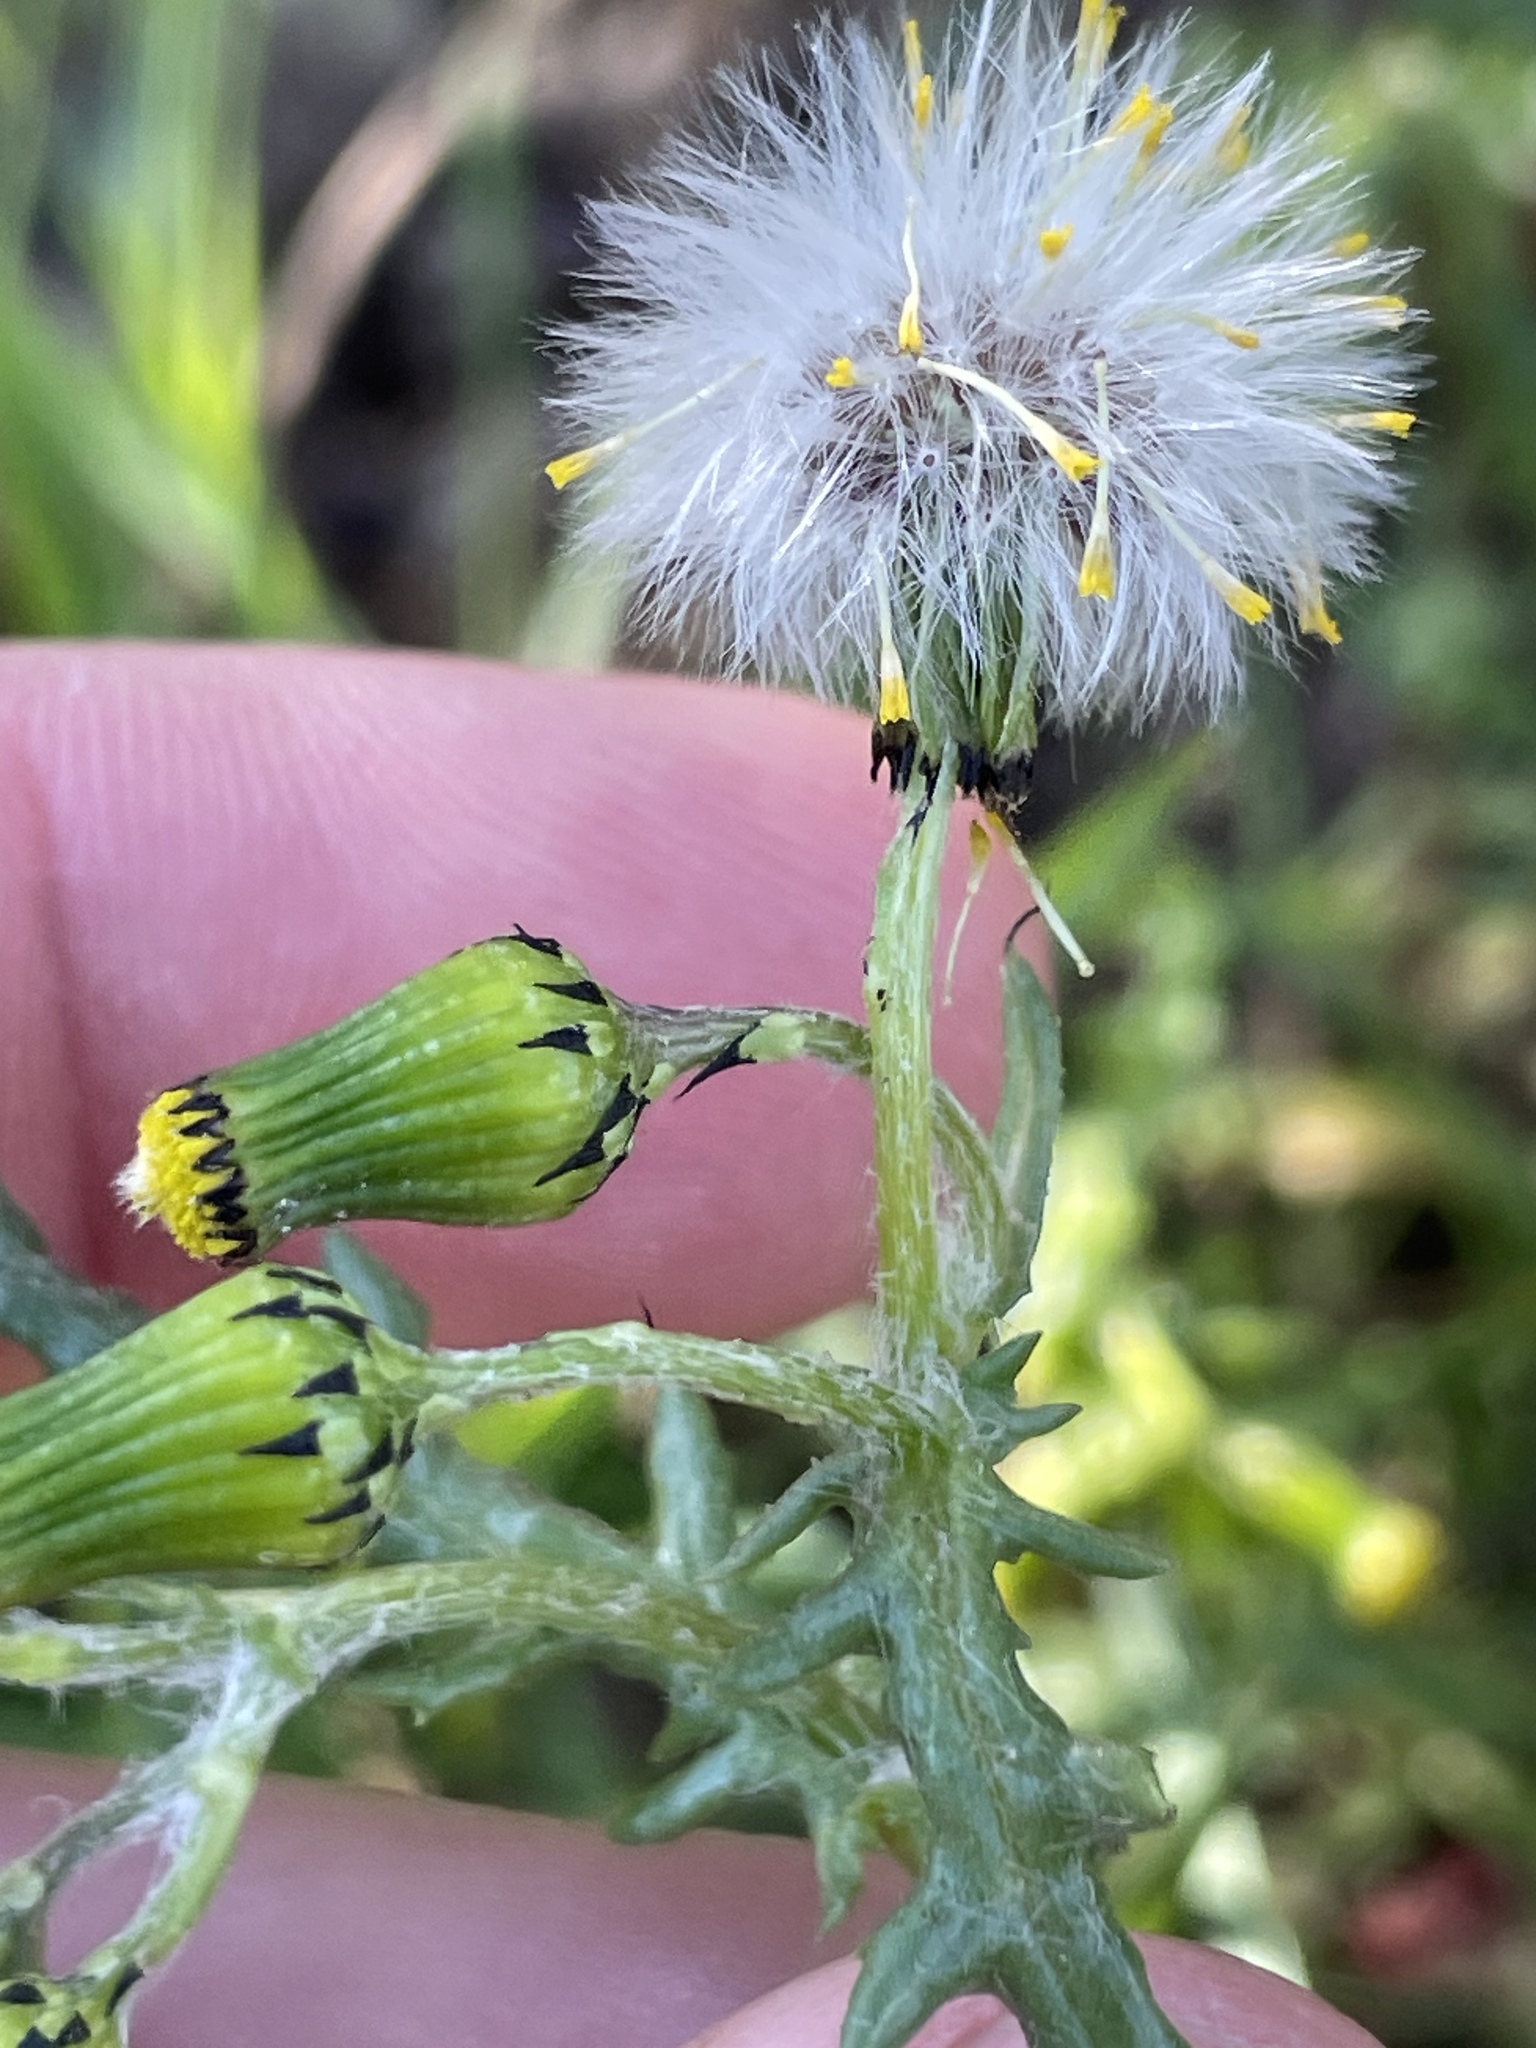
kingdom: Plantae
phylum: Tracheophyta
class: Magnoliopsida
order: Asterales
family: Asteraceae
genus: Senecio
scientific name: Senecio vulgaris
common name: Old-man-in-the-spring
